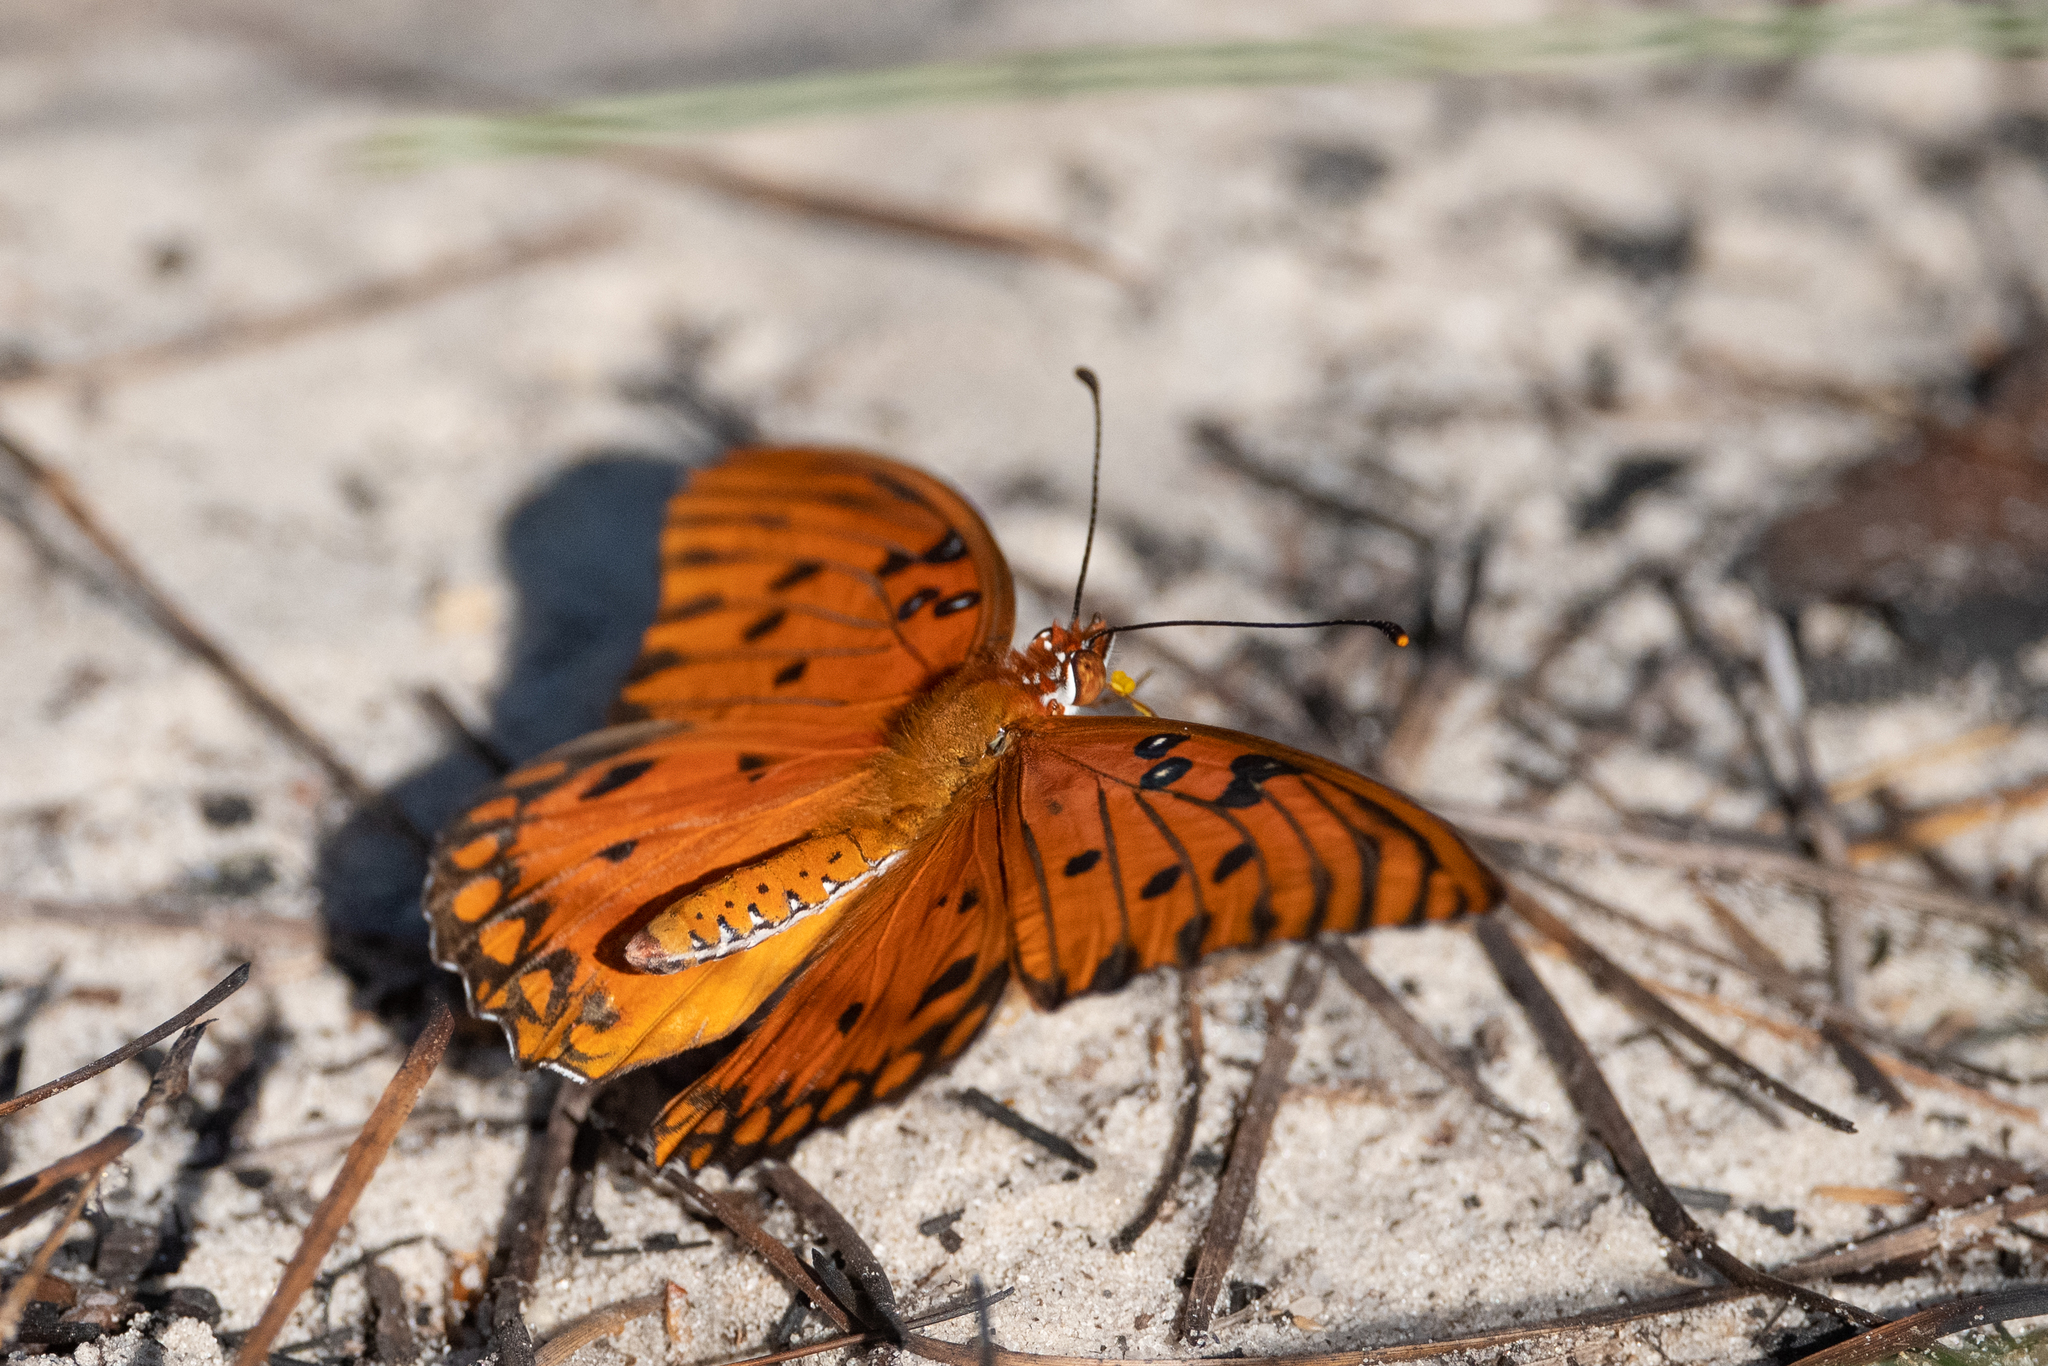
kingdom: Animalia
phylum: Arthropoda
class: Insecta
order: Lepidoptera
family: Nymphalidae
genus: Dione
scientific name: Dione vanillae
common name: Gulf fritillary
